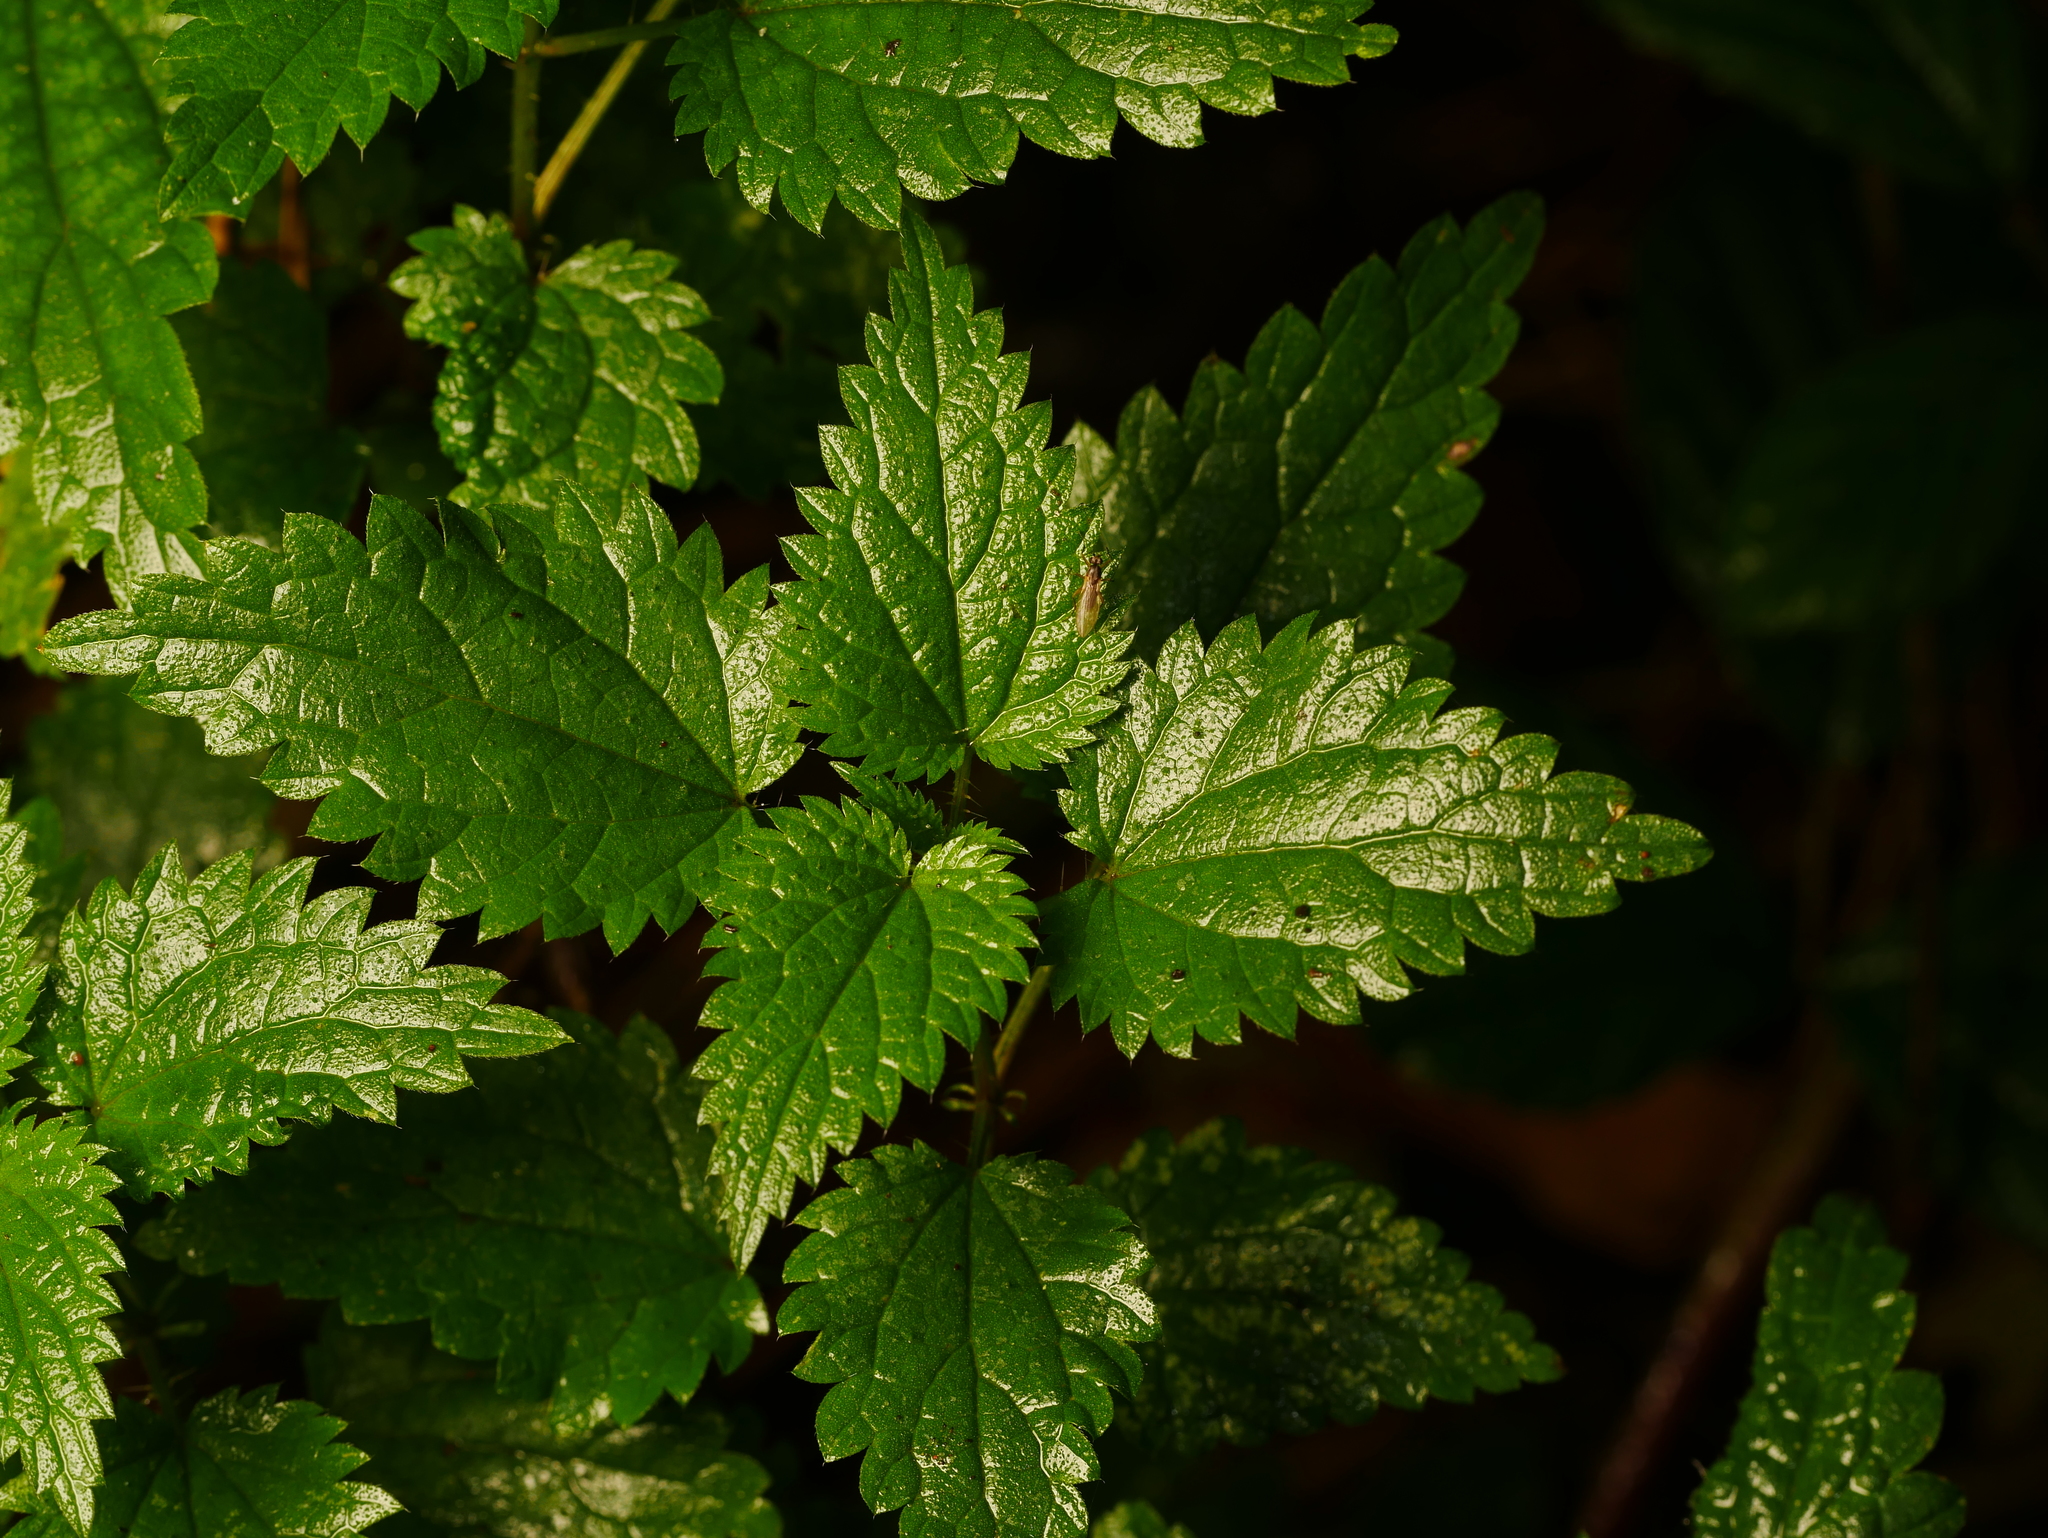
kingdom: Plantae
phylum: Tracheophyta
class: Magnoliopsida
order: Rosales
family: Urticaceae
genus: Urtica
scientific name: Urtica dioica
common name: Common nettle
